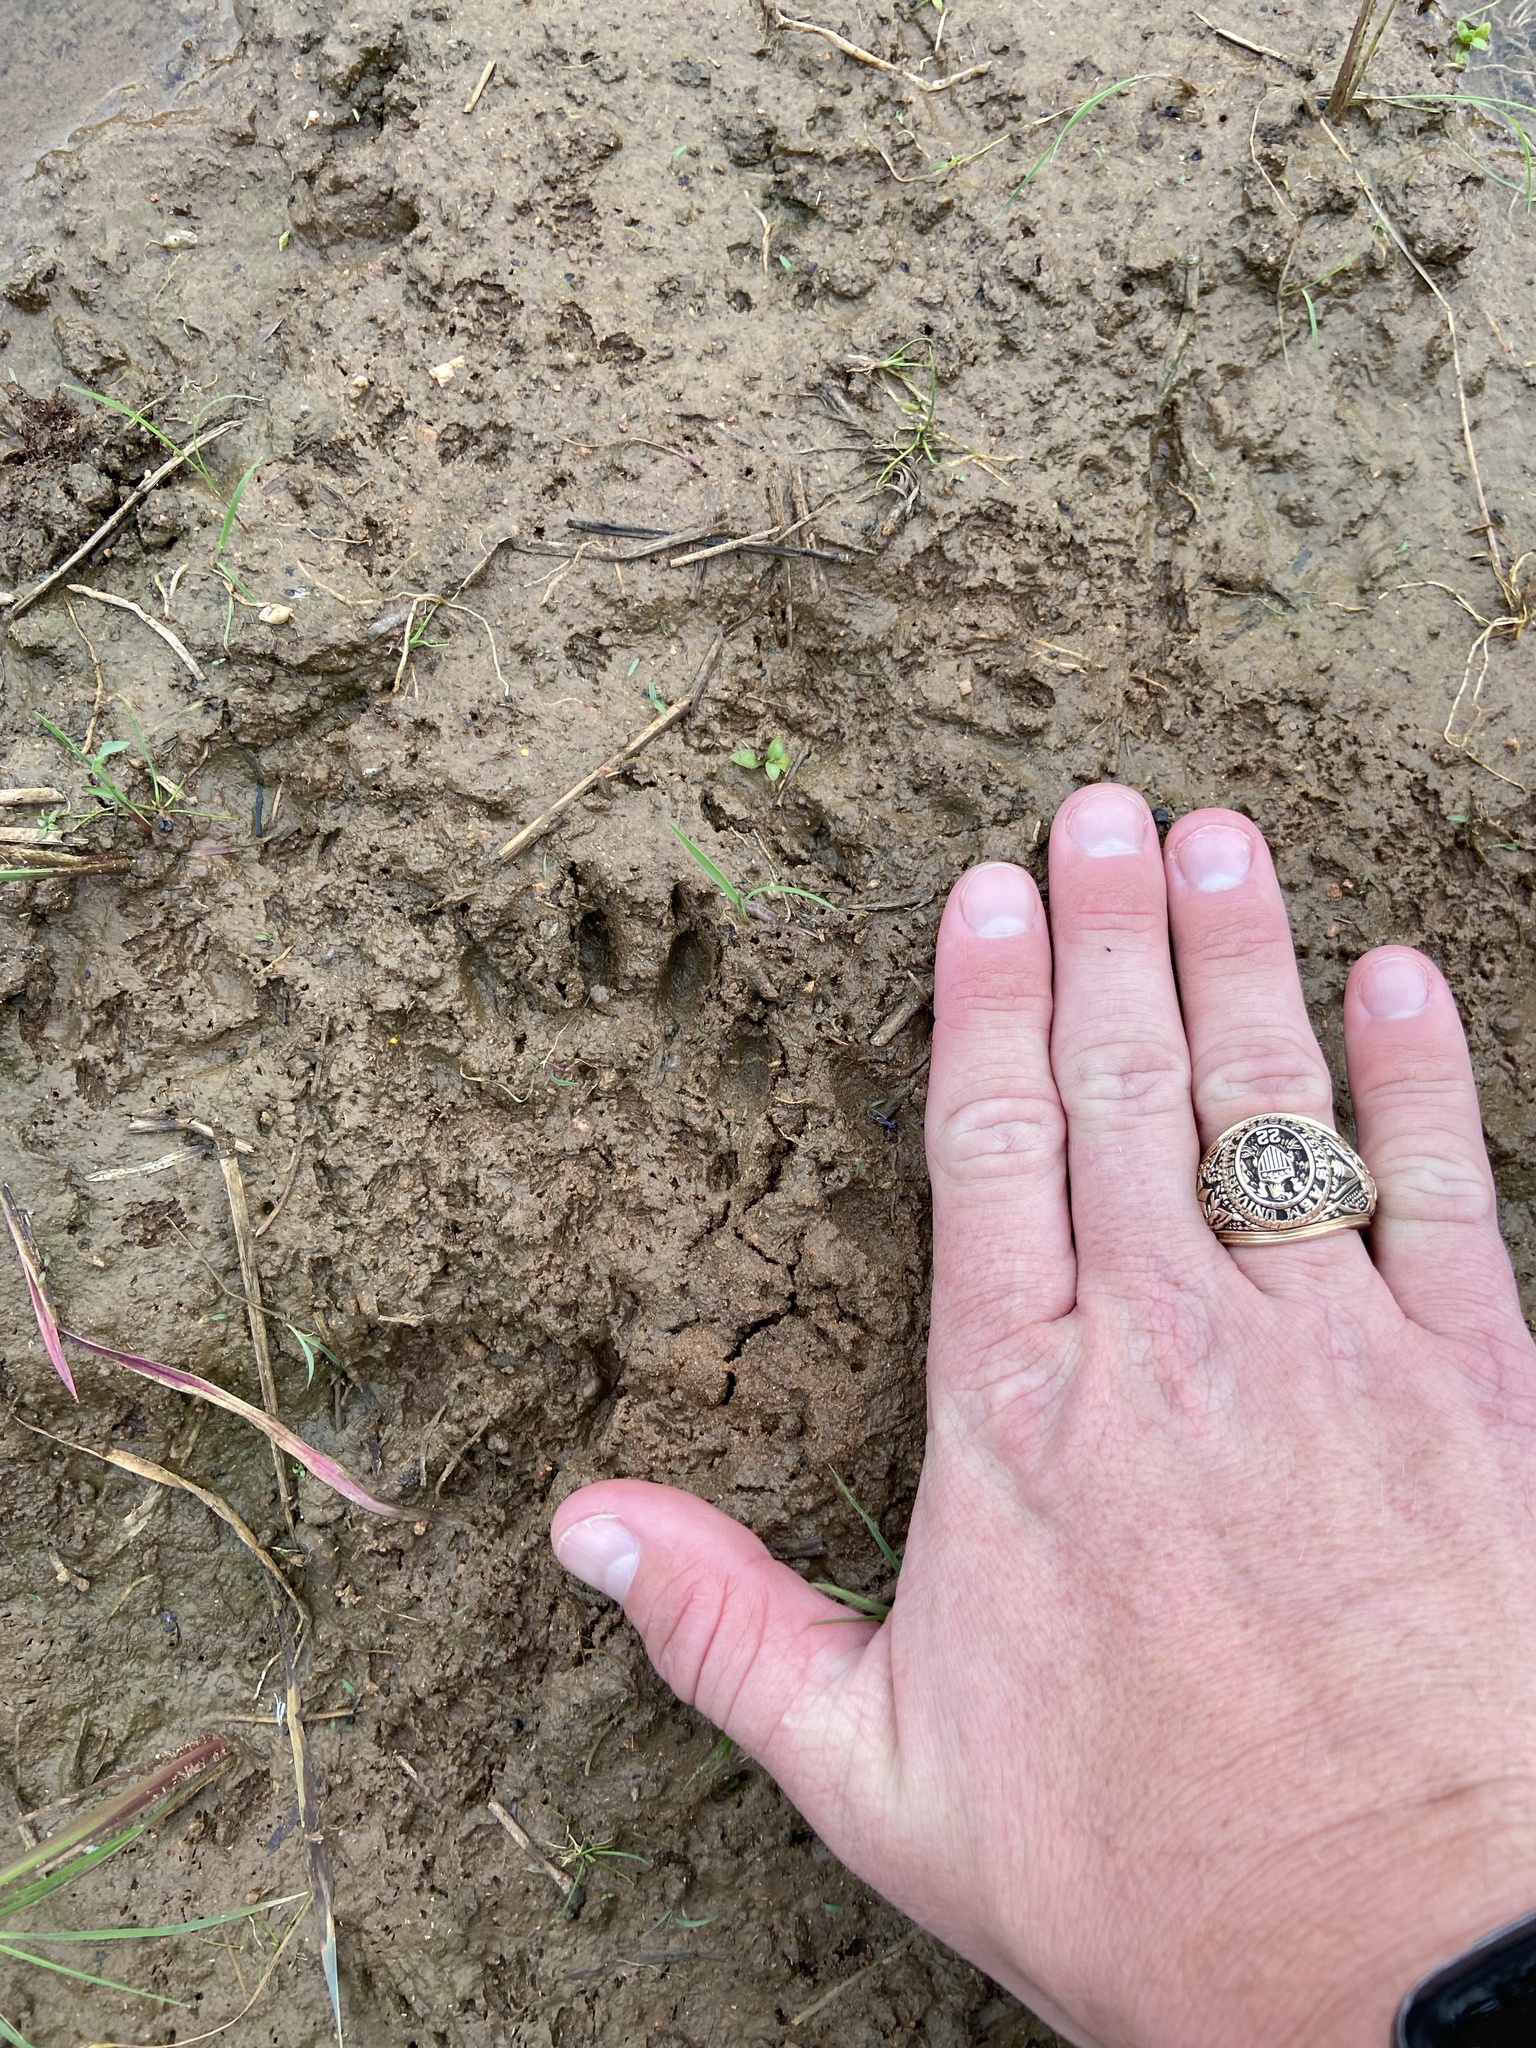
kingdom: Animalia
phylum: Chordata
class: Mammalia
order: Carnivora
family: Procyonidae
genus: Procyon
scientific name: Procyon lotor
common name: Raccoon
